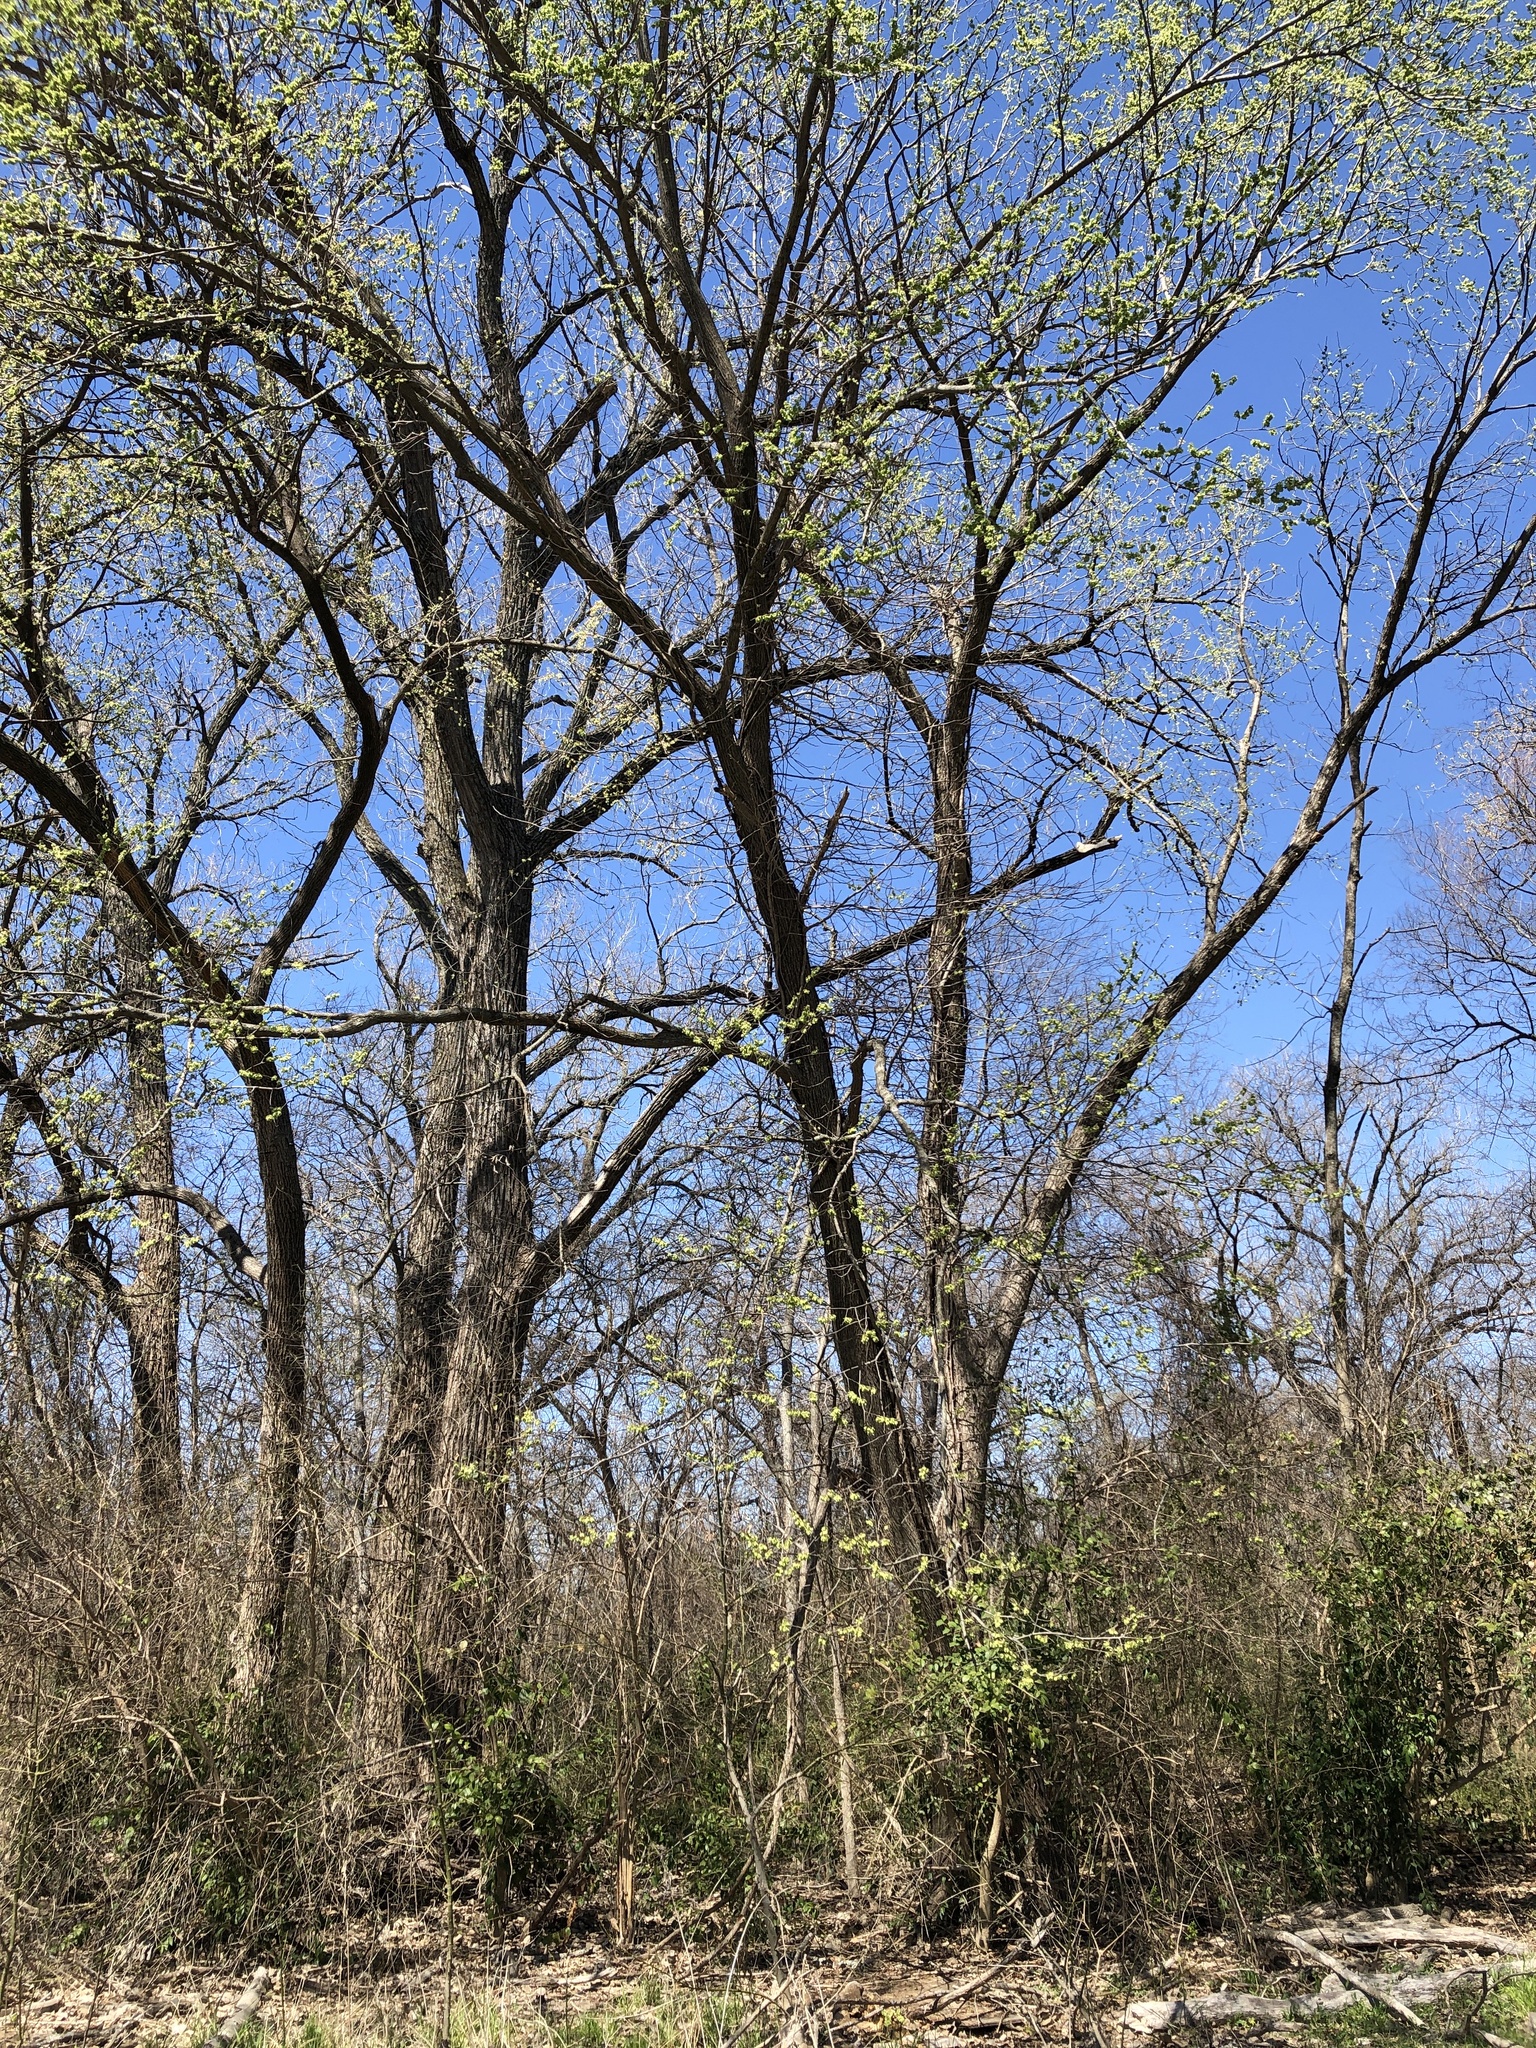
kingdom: Plantae
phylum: Tracheophyta
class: Magnoliopsida
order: Rosales
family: Ulmaceae
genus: Ulmus
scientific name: Ulmus americana
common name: American elm
